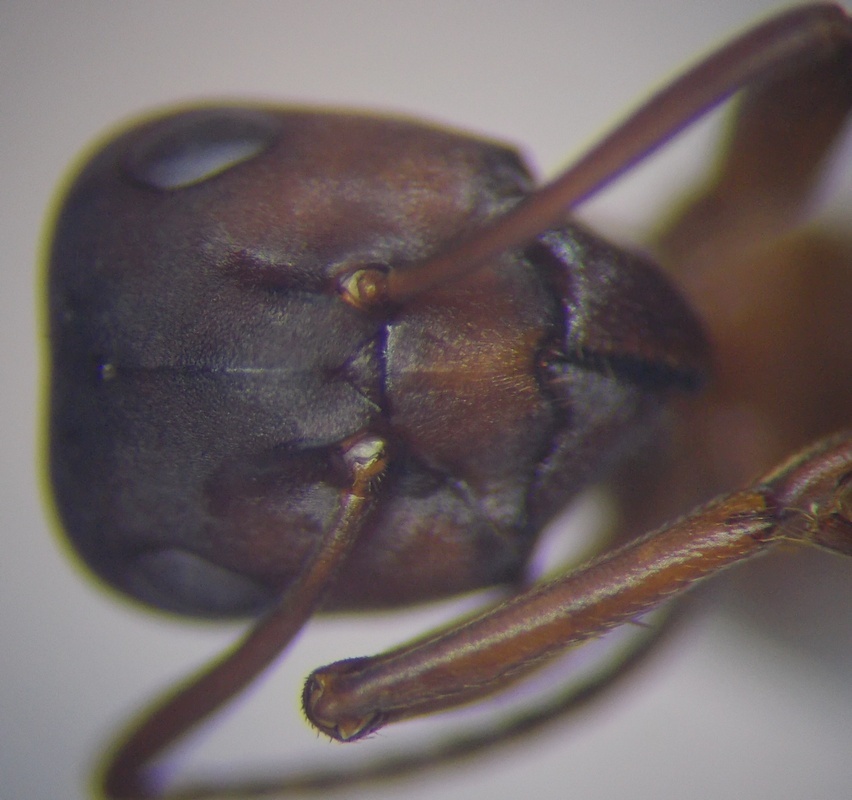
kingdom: Animalia
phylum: Arthropoda
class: Insecta
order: Hymenoptera
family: Formicidae
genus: Formica
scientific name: Formica sanguinea
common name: Blood-red ant
